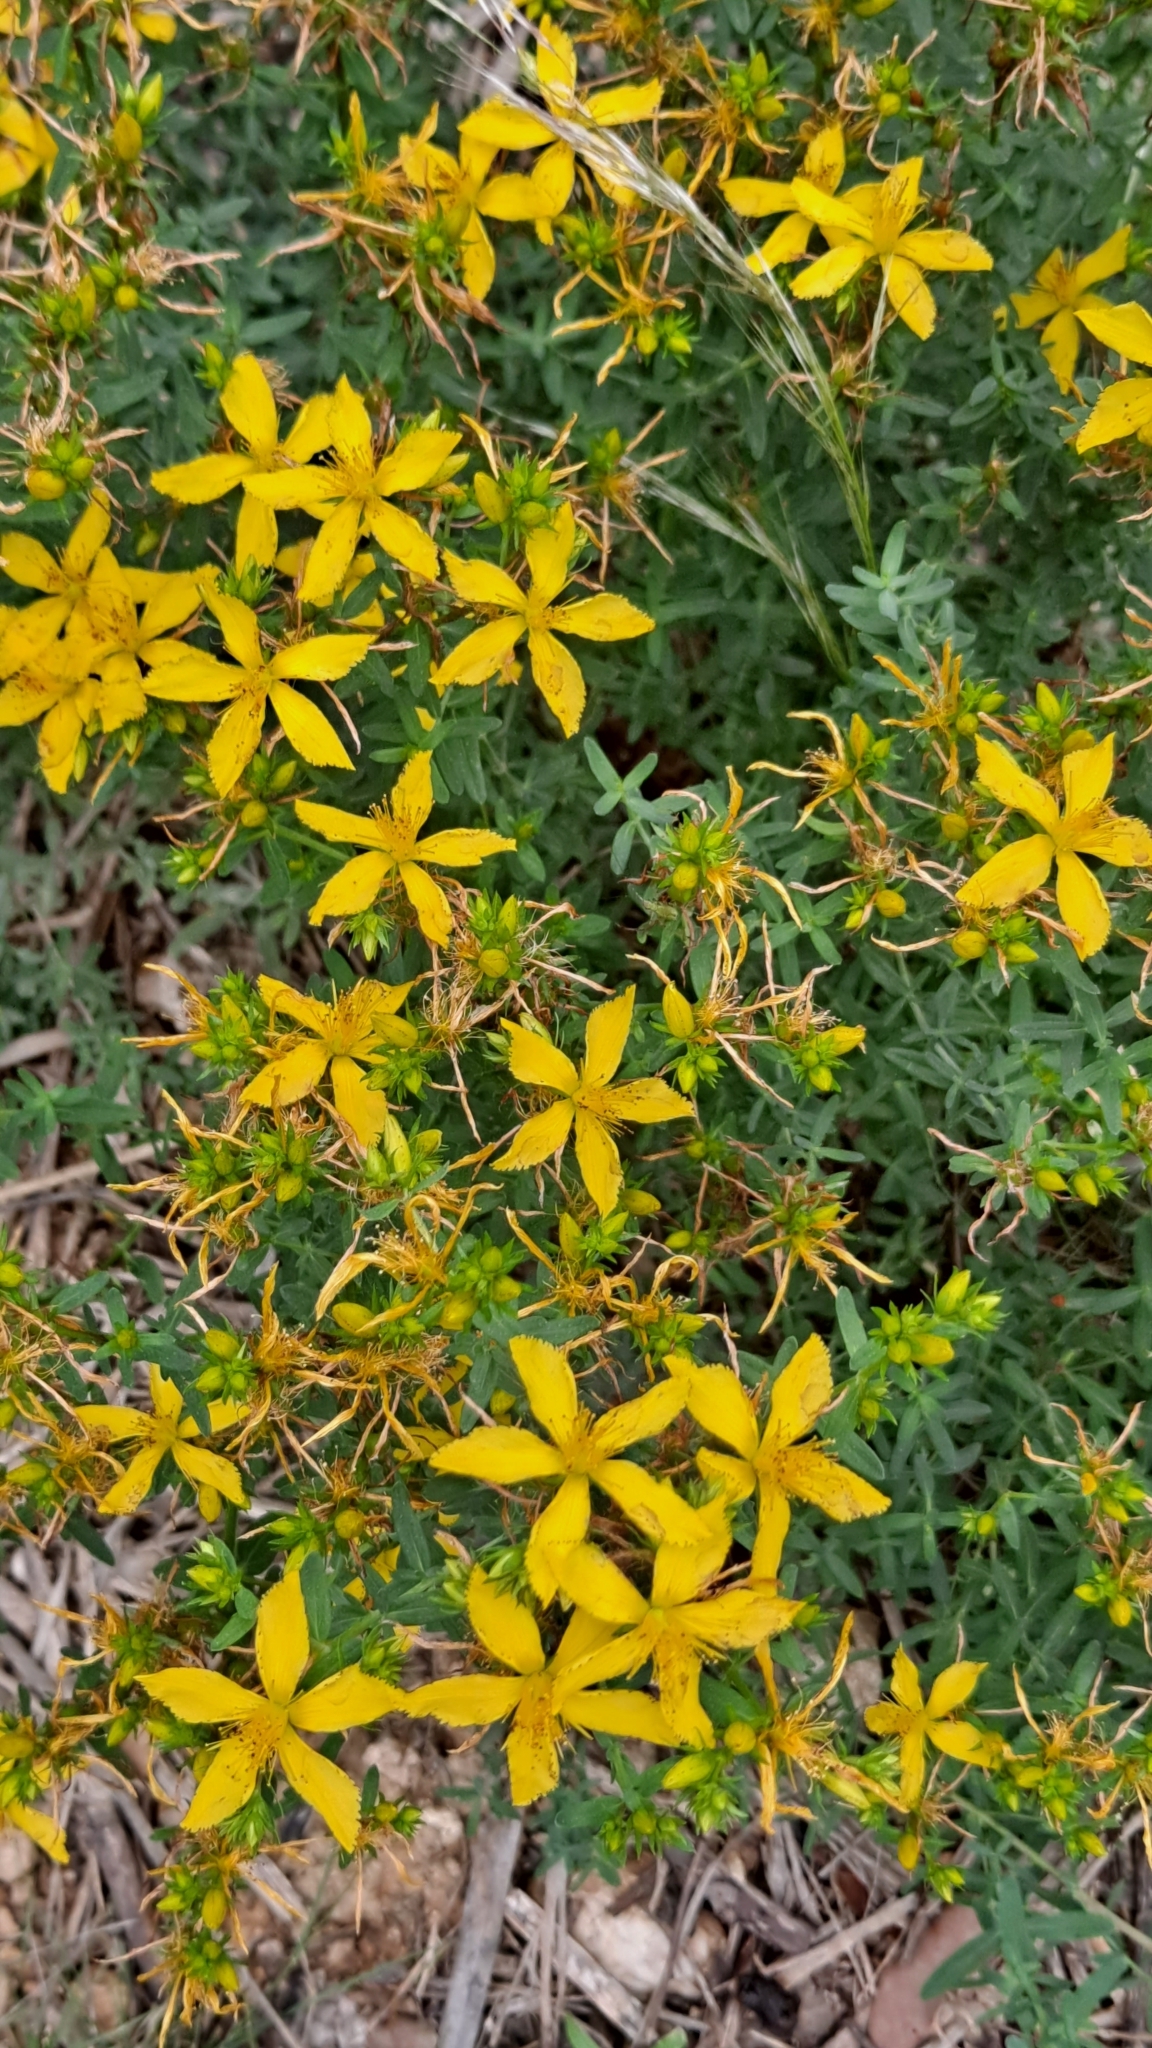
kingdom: Plantae
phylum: Tracheophyta
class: Magnoliopsida
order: Malpighiales
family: Hypericaceae
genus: Hypericum
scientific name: Hypericum perforatum
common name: Common st. johnswort
